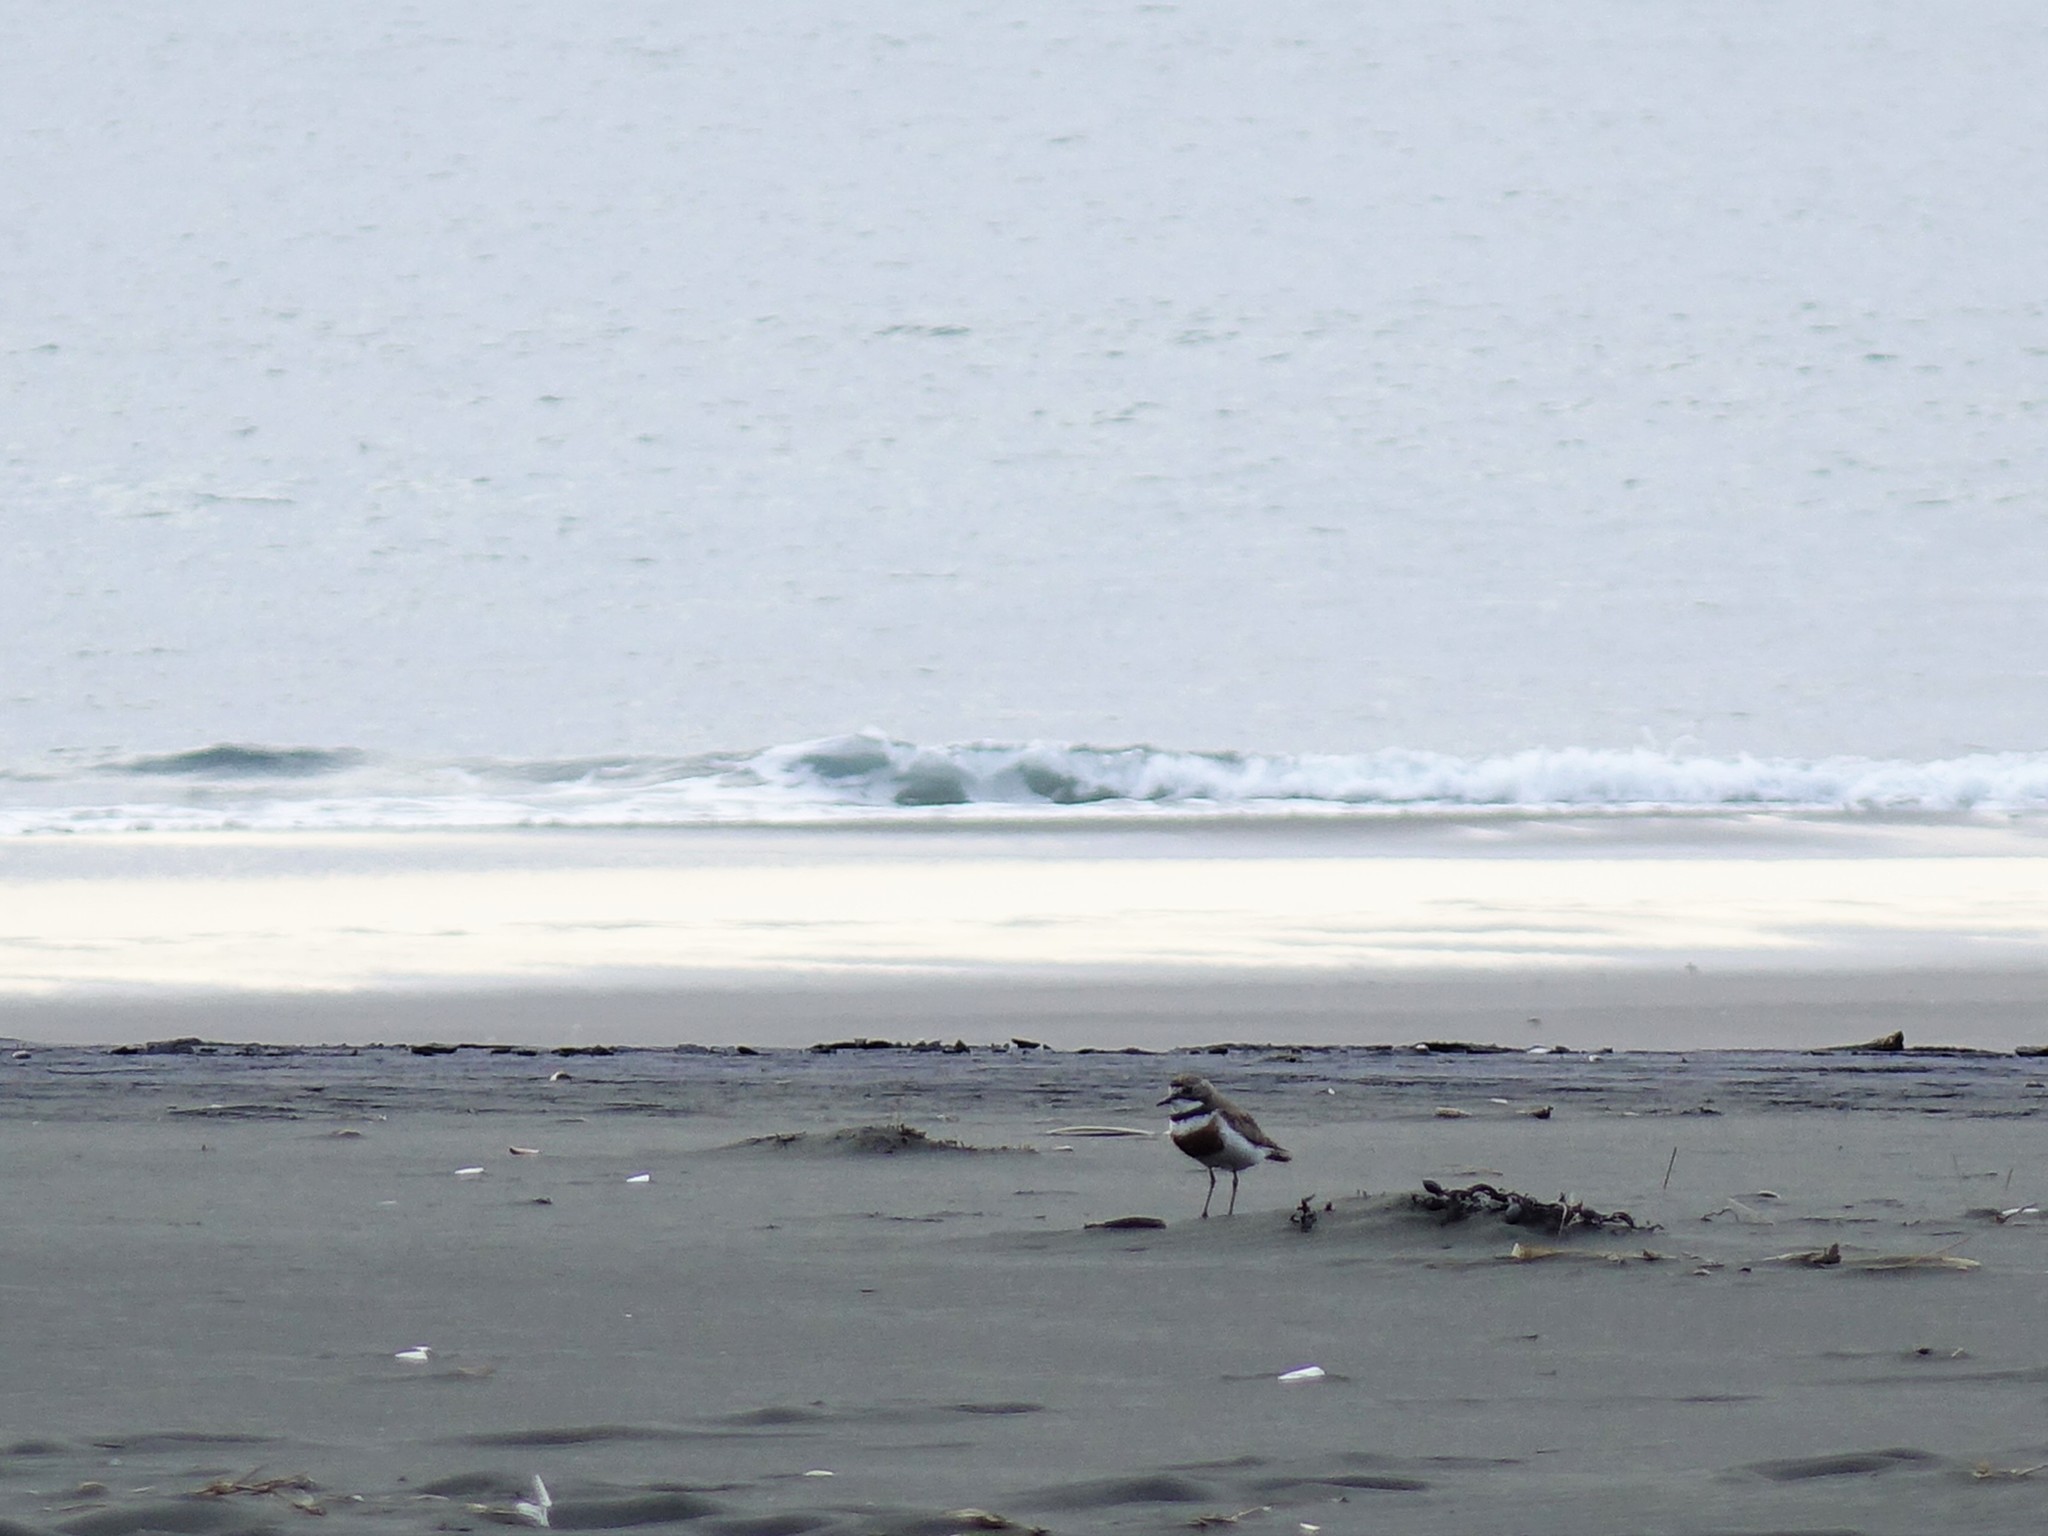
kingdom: Animalia
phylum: Chordata
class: Aves
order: Charadriiformes
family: Charadriidae
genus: Anarhynchus
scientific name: Anarhynchus
